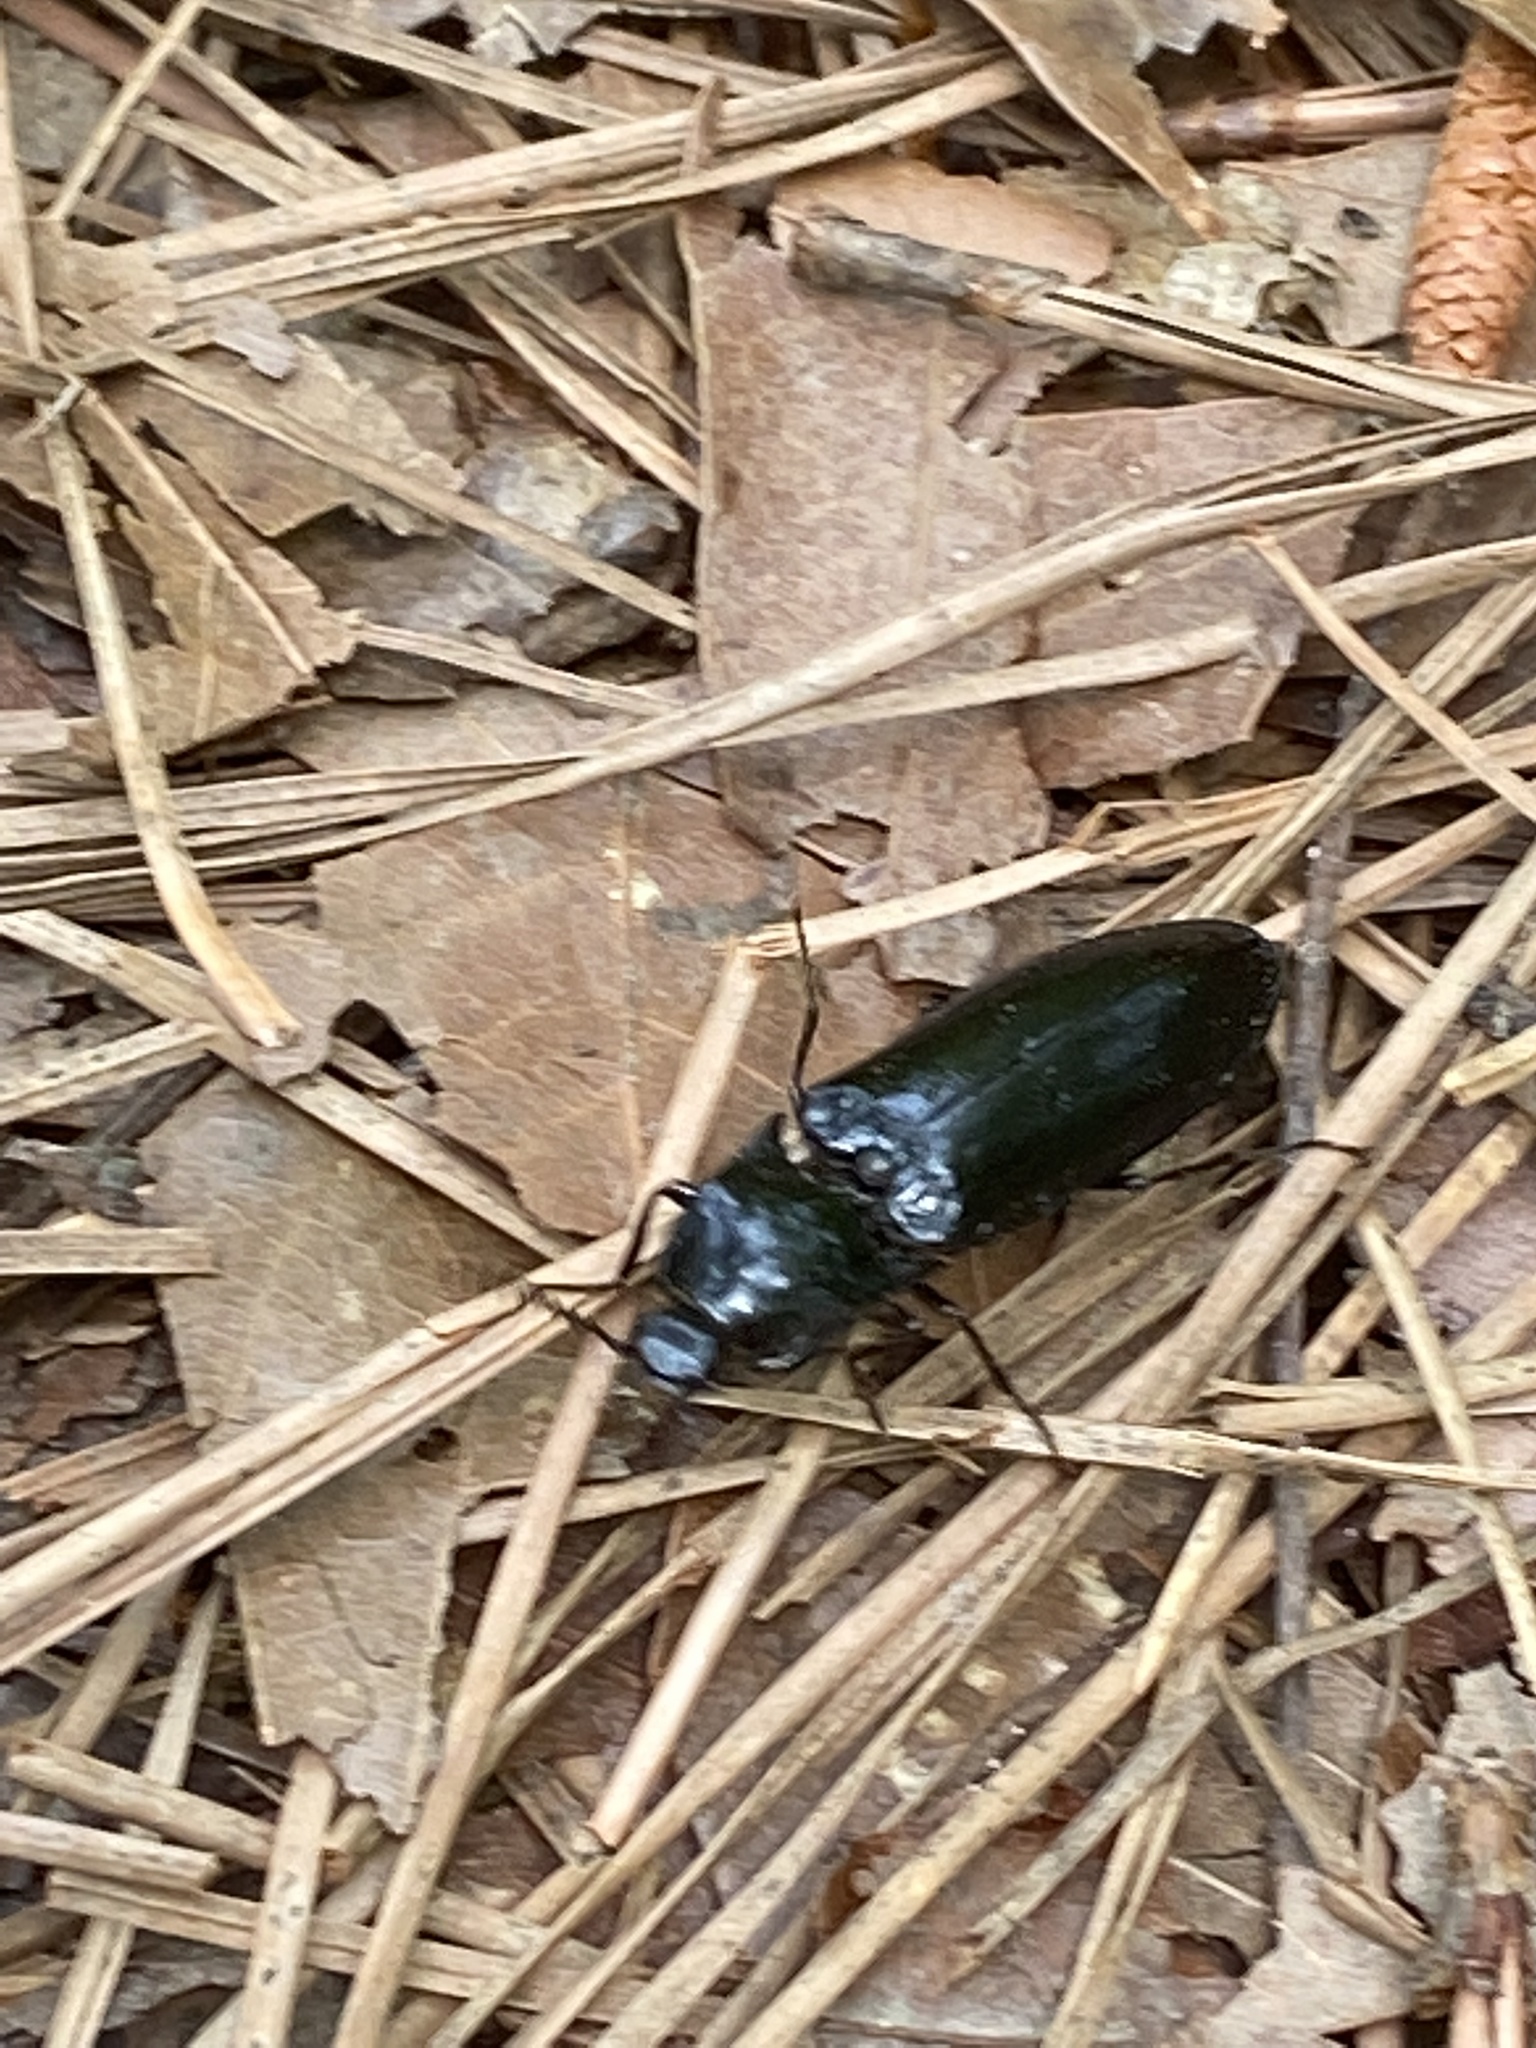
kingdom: Animalia
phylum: Arthropoda
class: Insecta
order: Coleoptera
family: Elateridae
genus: Melanactes
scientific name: Melanactes piceus
